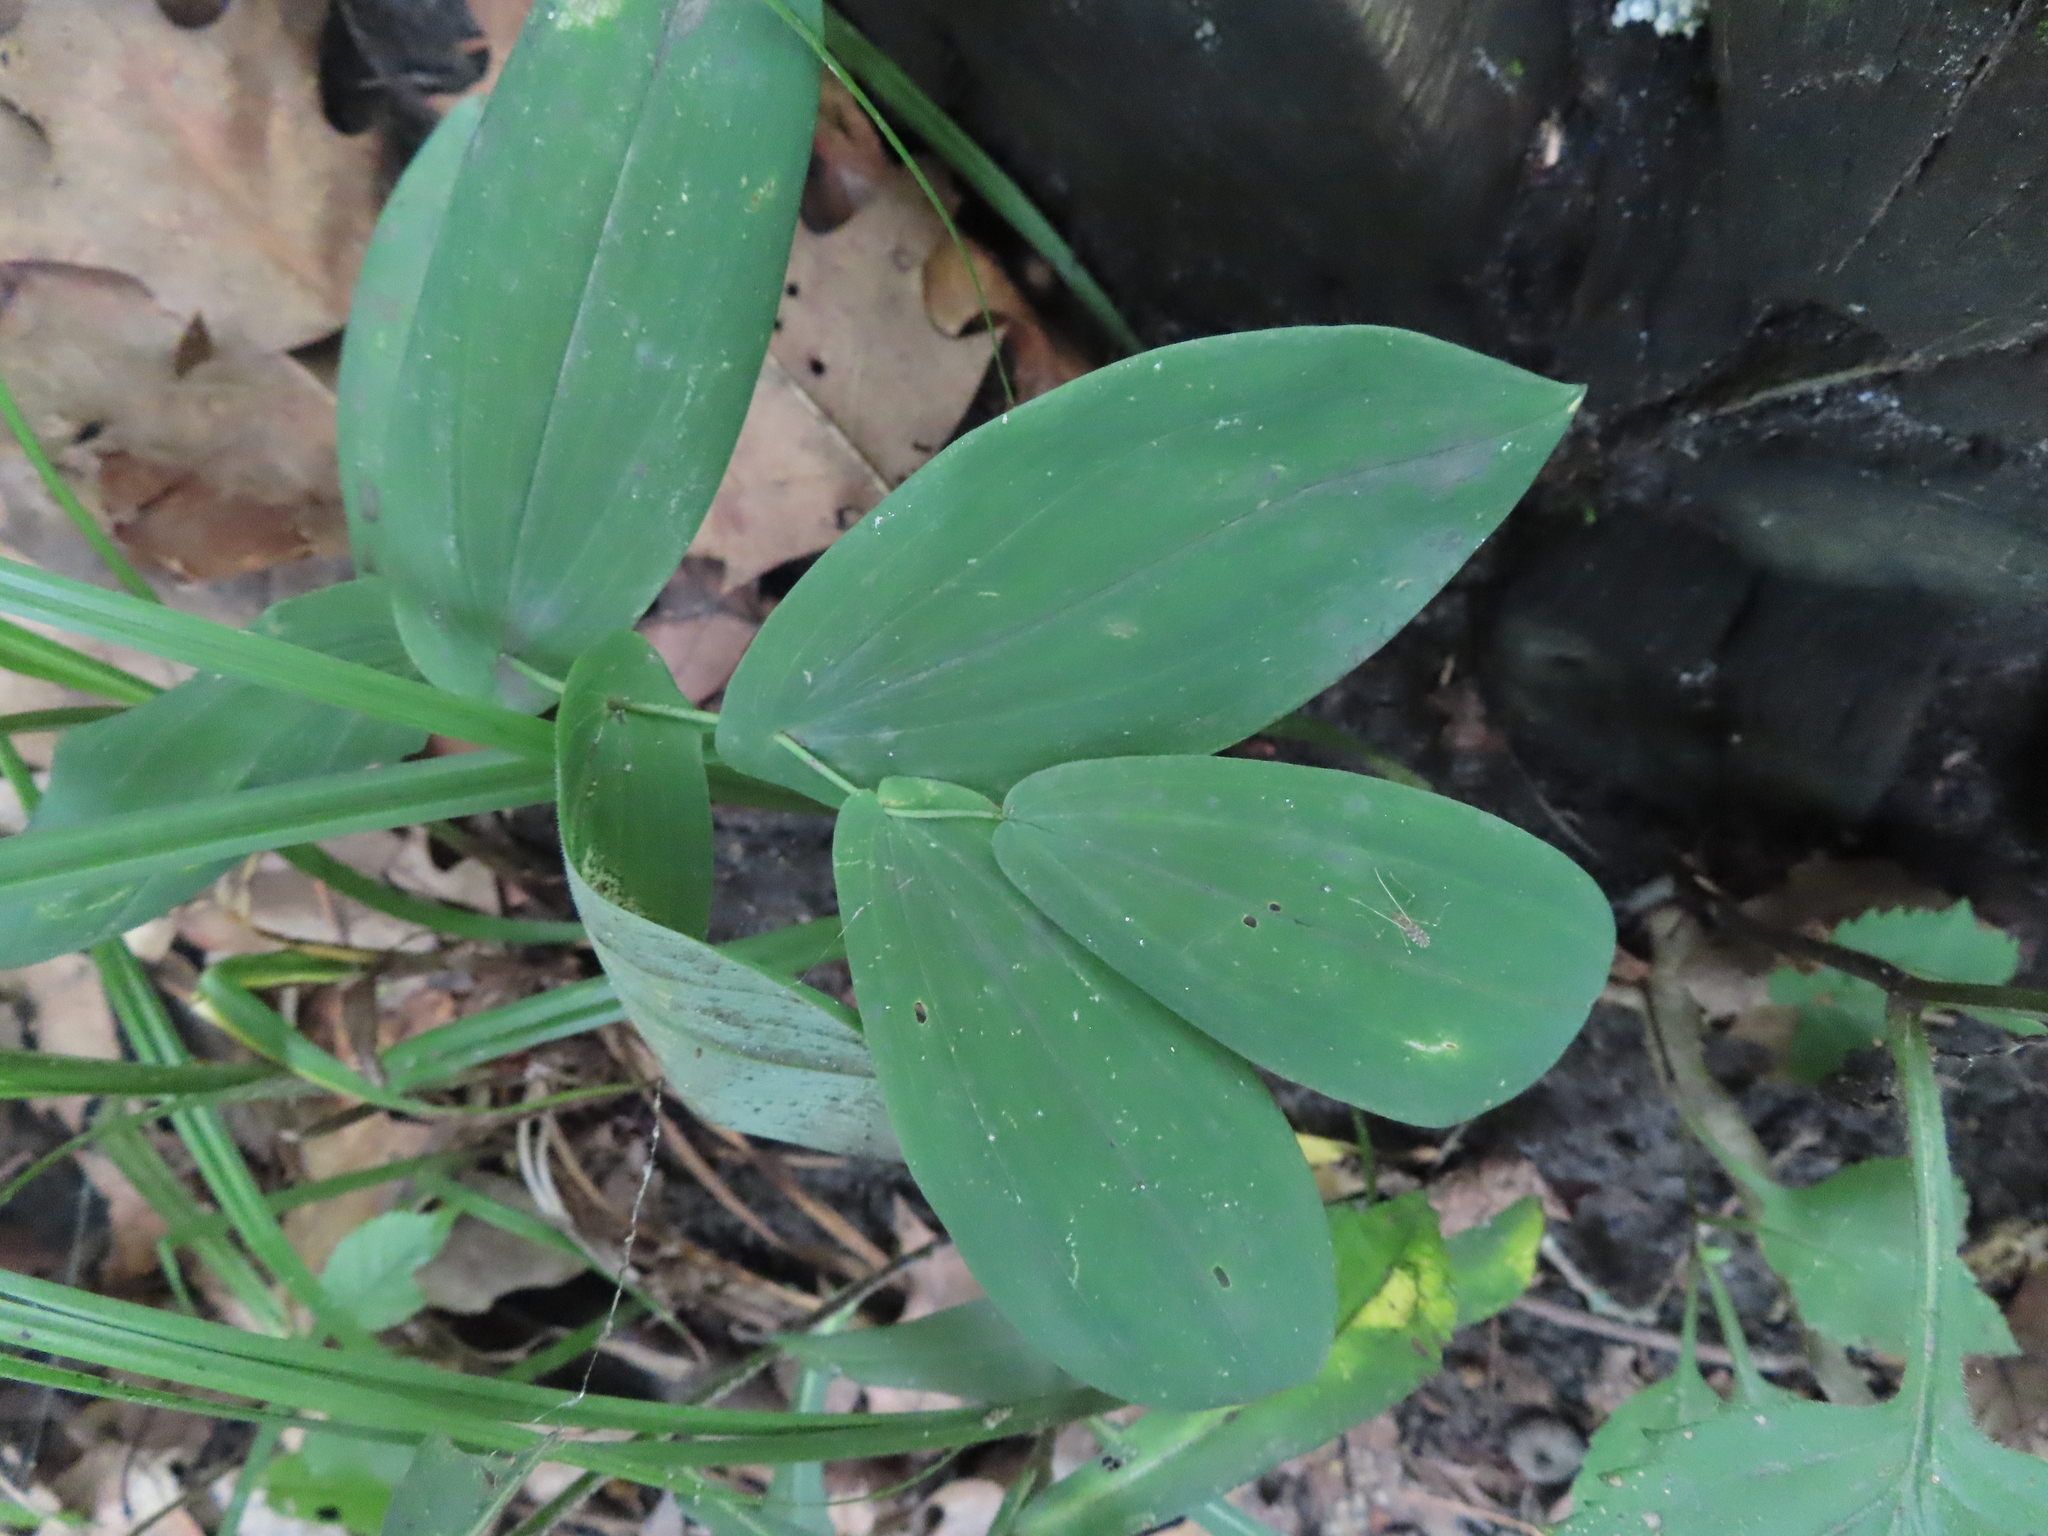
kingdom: Plantae
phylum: Tracheophyta
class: Liliopsida
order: Liliales
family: Colchicaceae
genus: Uvularia
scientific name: Uvularia grandiflora
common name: Bellwort
